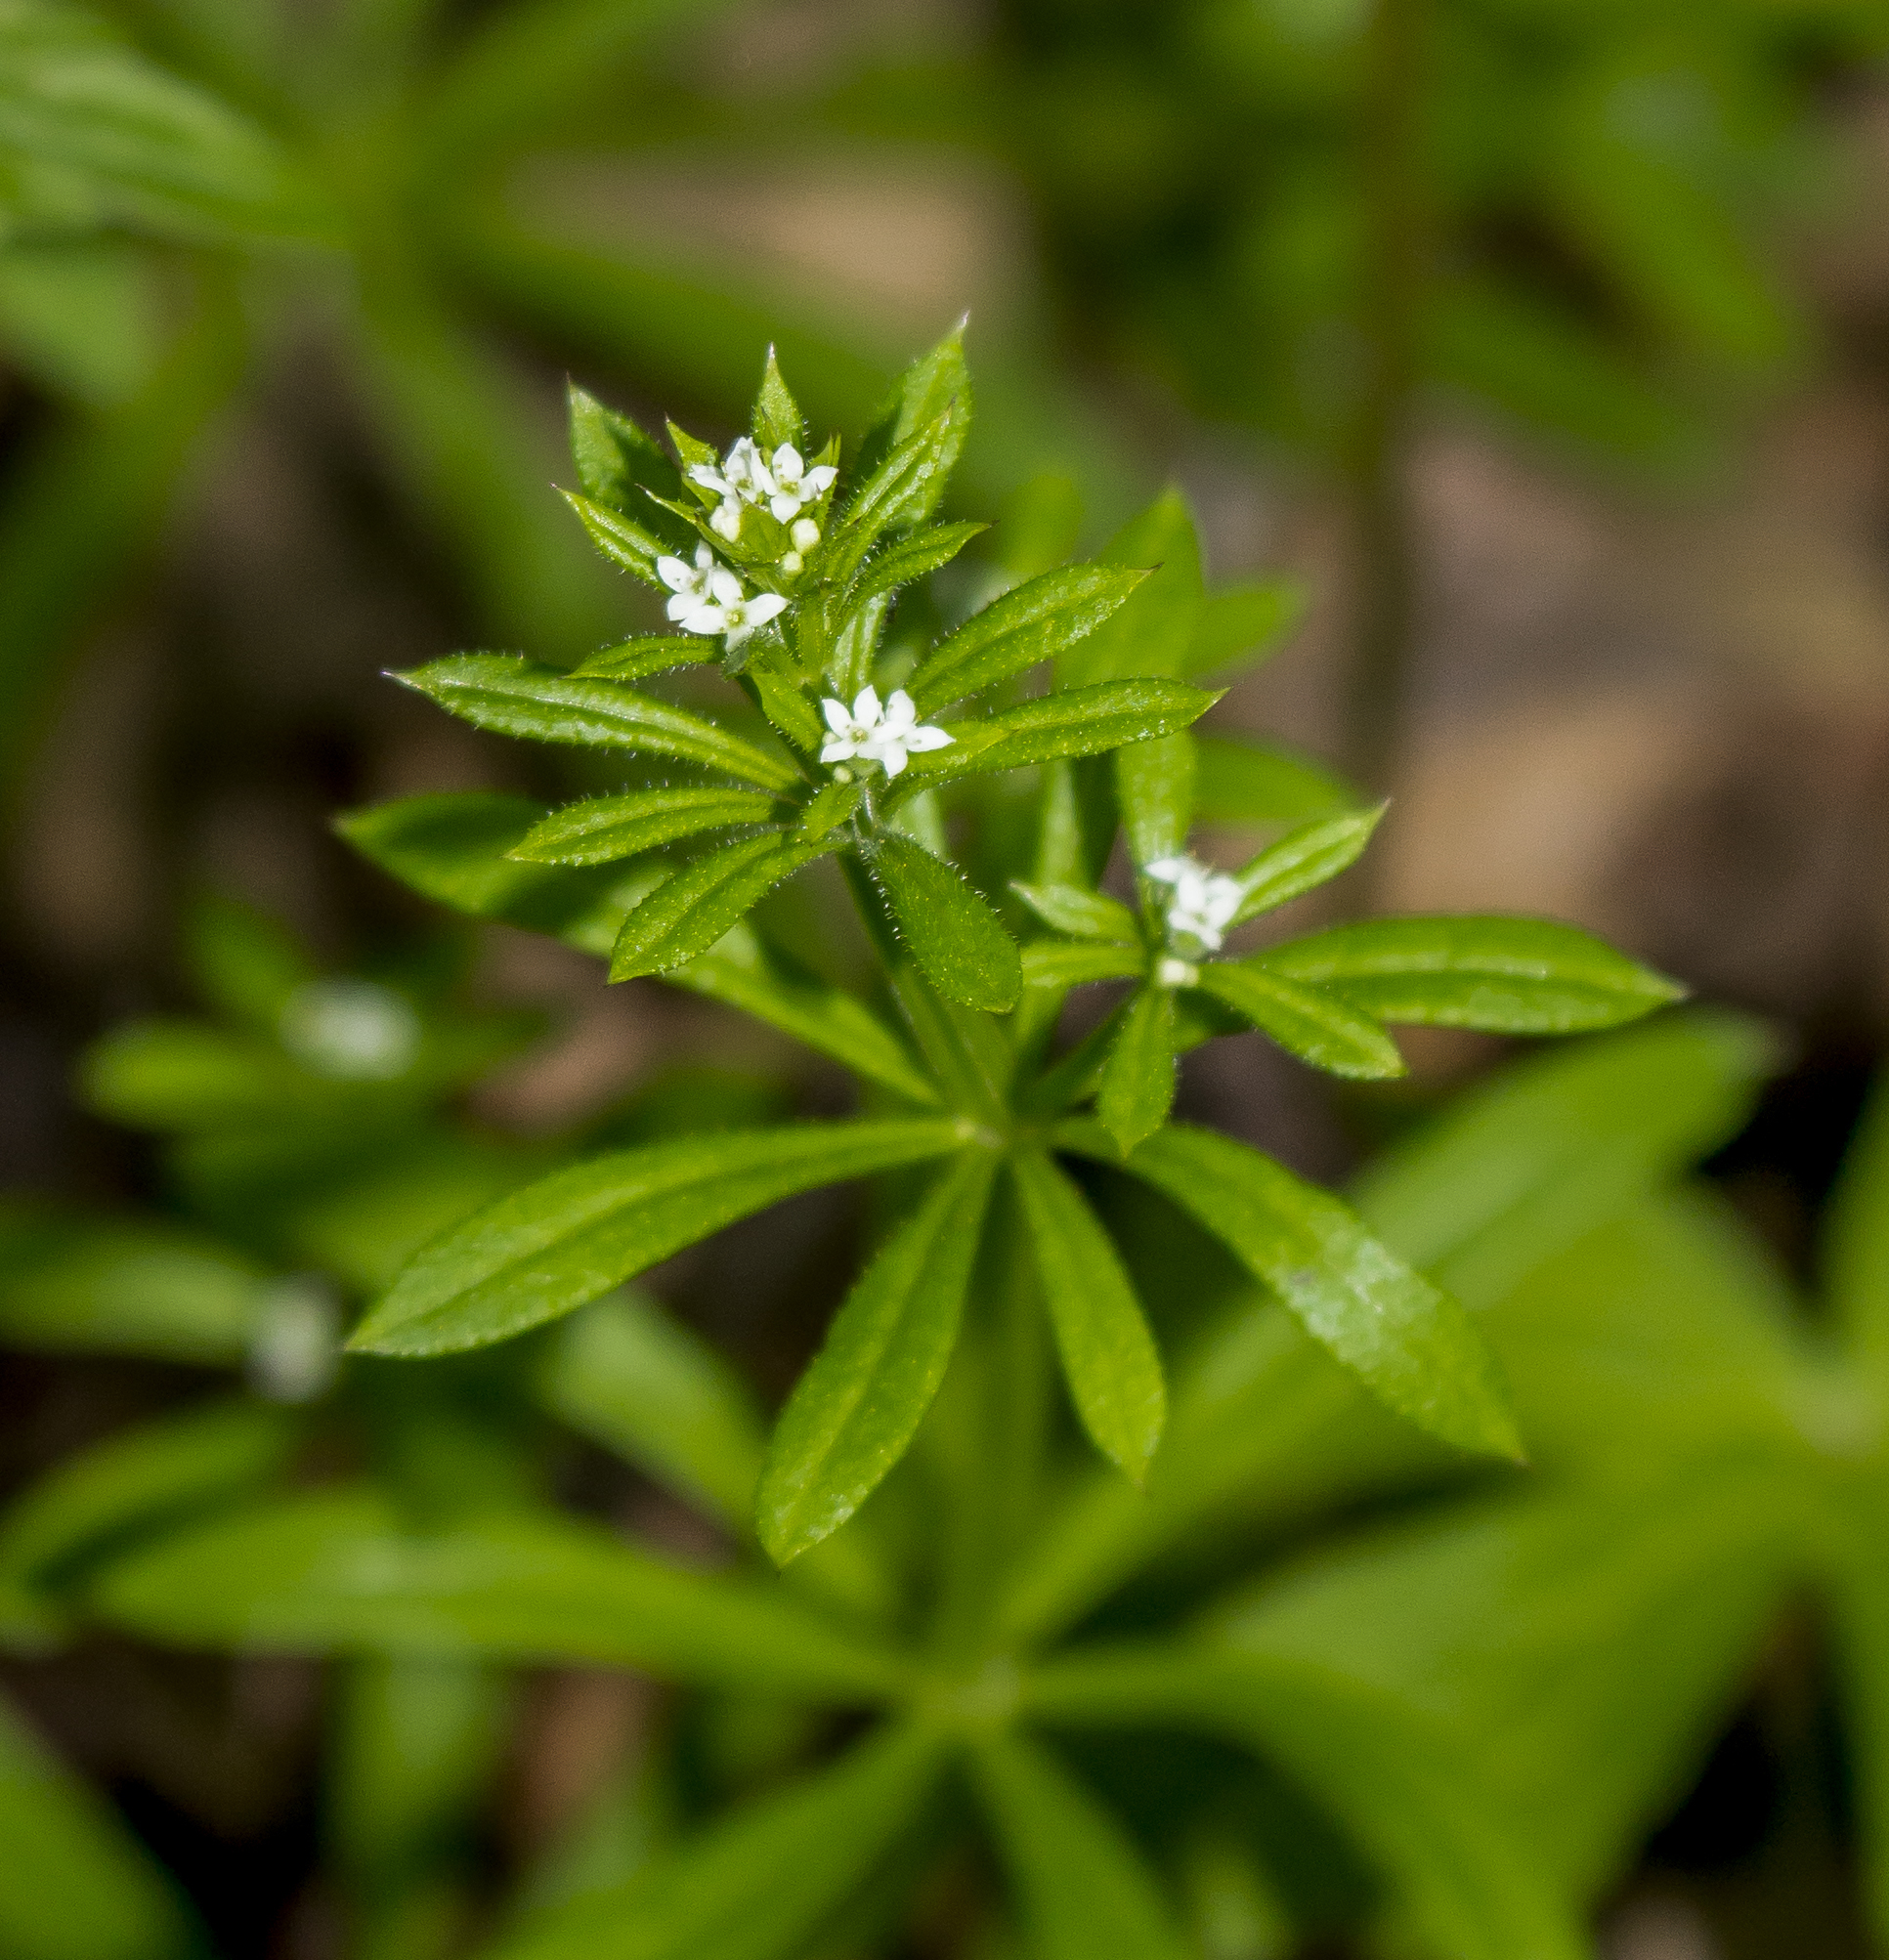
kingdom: Plantae
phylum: Tracheophyta
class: Magnoliopsida
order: Gentianales
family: Rubiaceae
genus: Galium
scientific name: Galium aparine
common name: Cleavers
